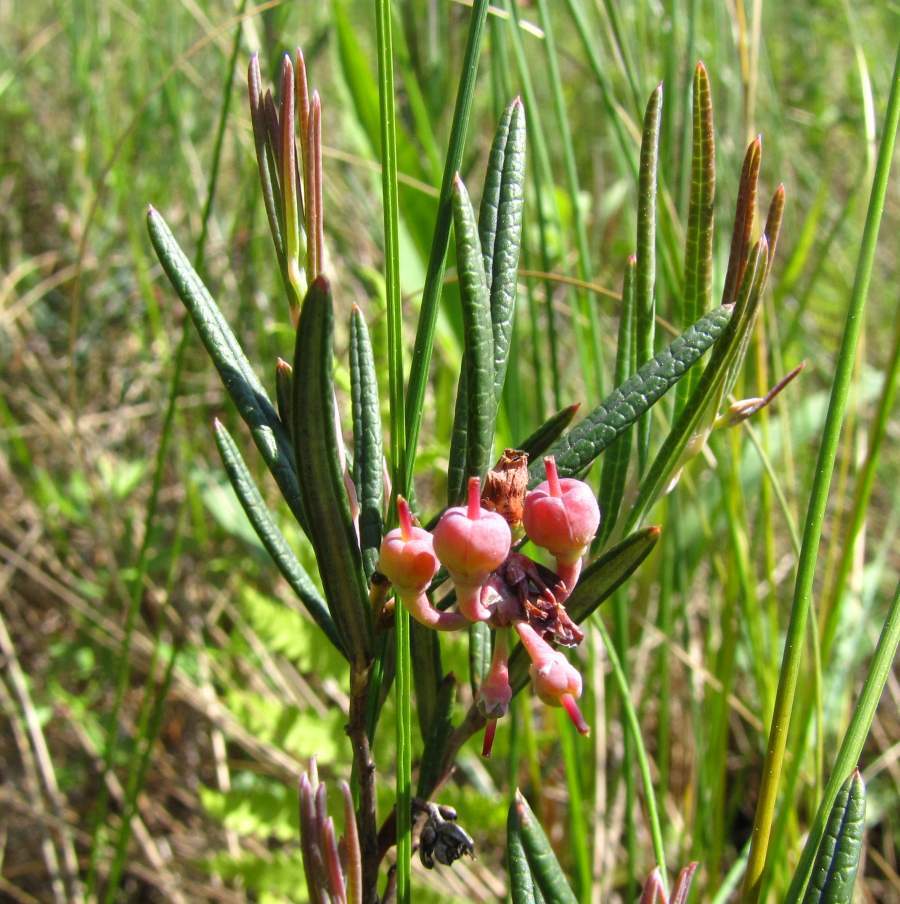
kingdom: Plantae
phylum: Tracheophyta
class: Magnoliopsida
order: Ericales
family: Ericaceae
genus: Andromeda
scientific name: Andromeda polifolia
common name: Bog-rosemary
